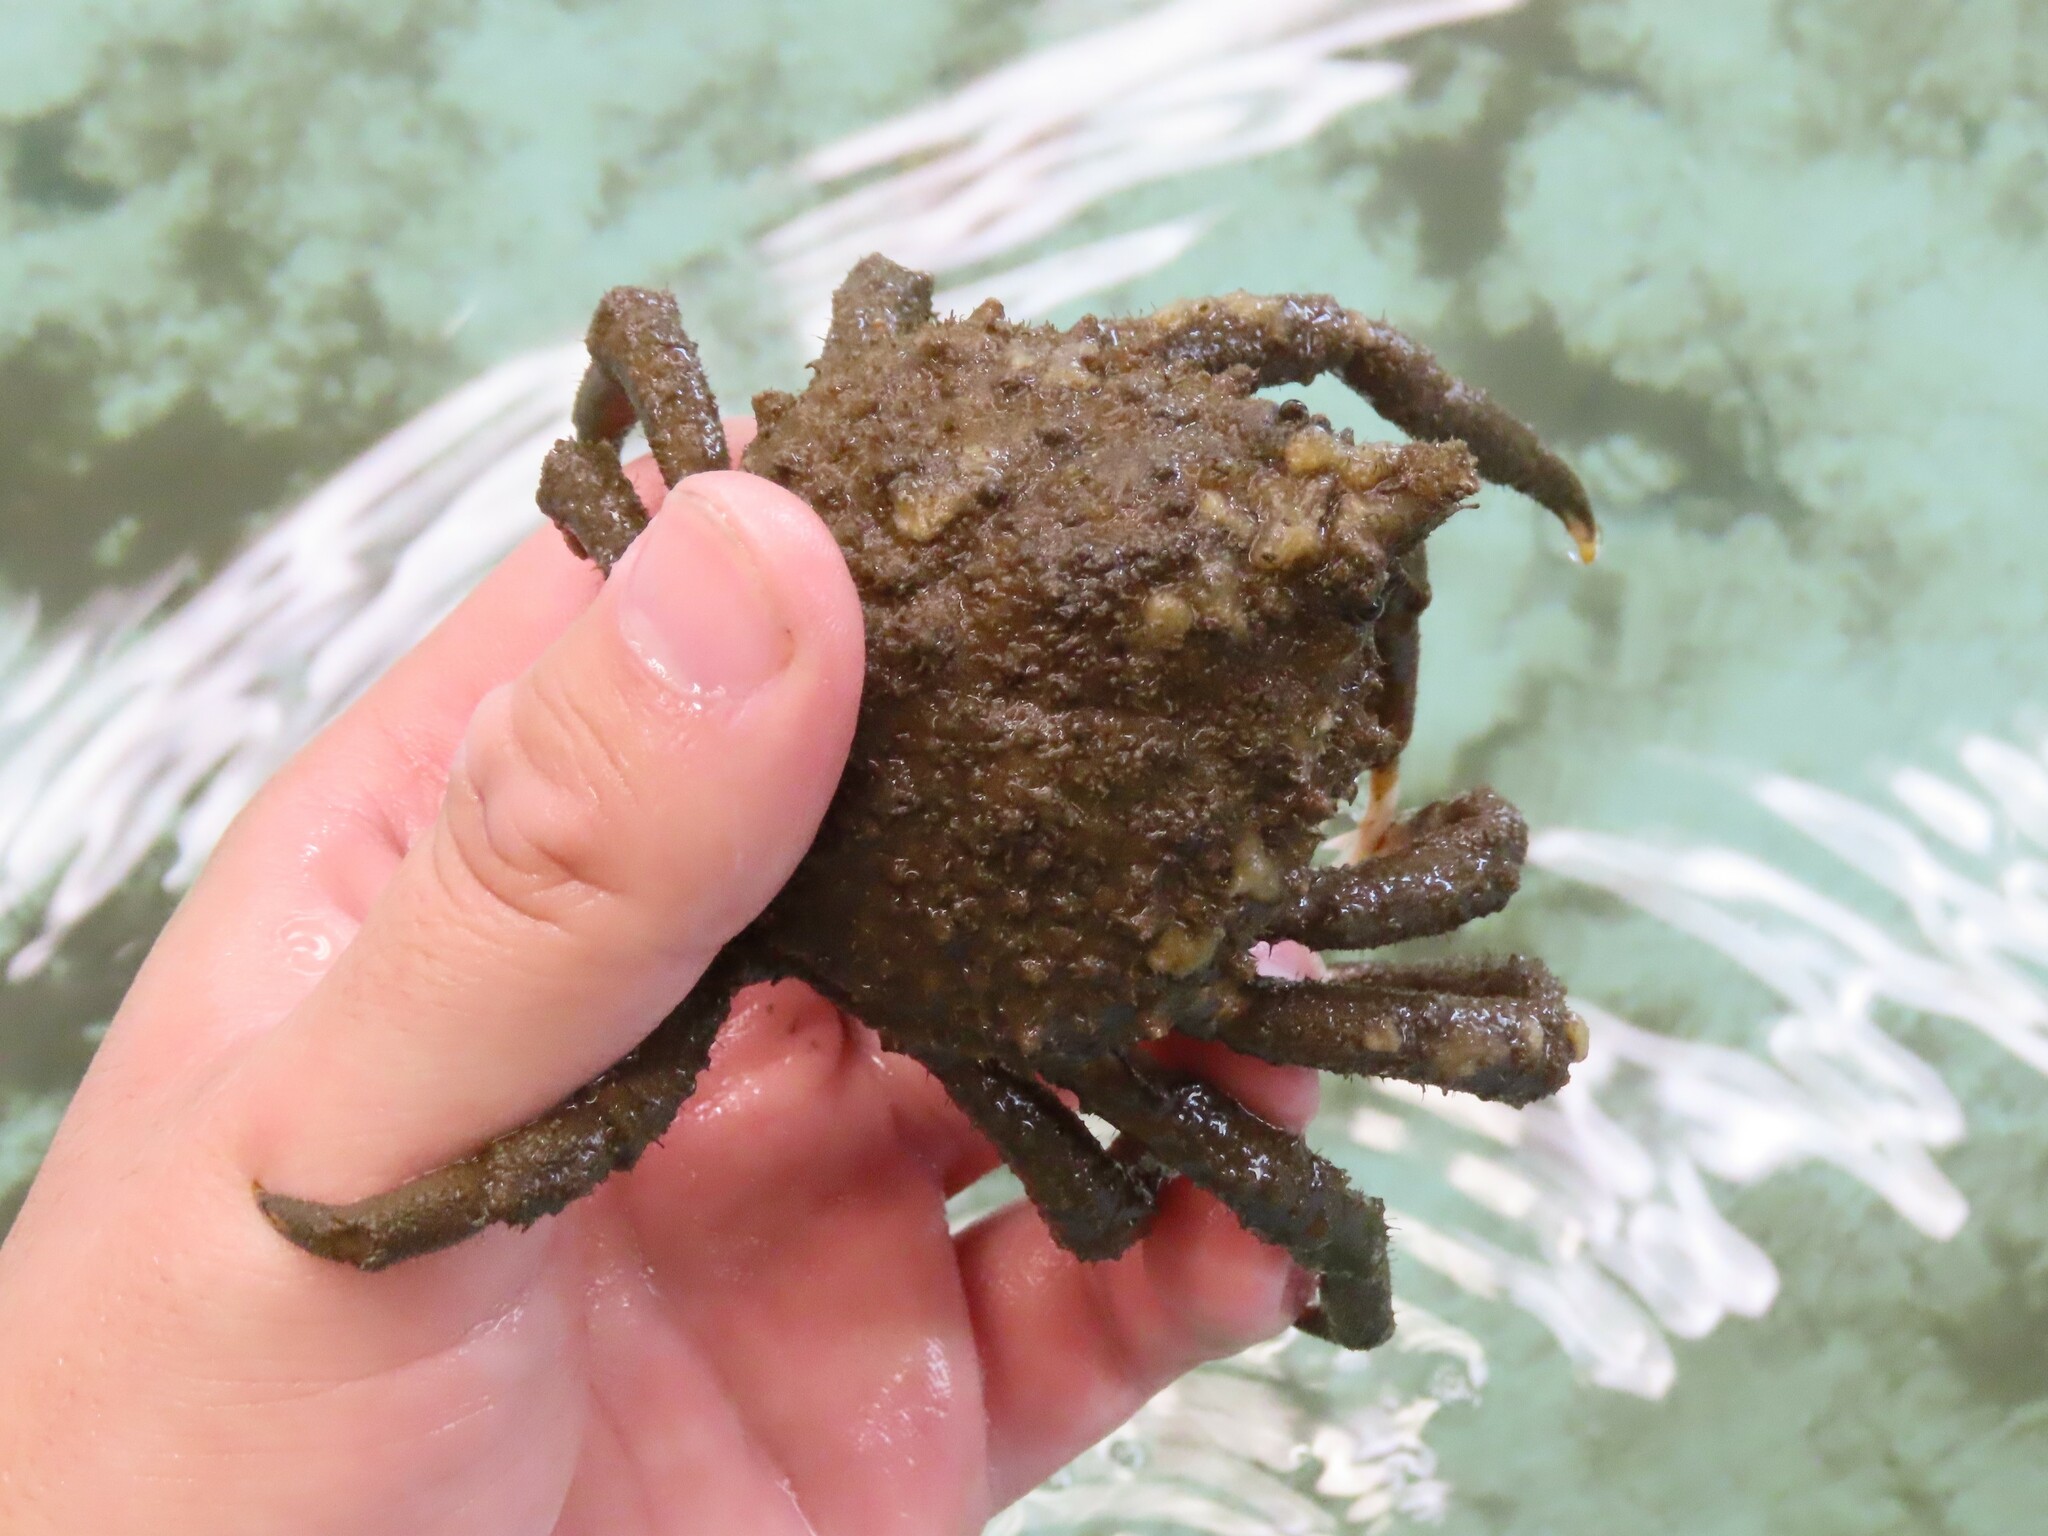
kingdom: Animalia
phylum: Arthropoda
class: Malacostraca
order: Decapoda
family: Epialtidae
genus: Libinia
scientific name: Libinia emarginata
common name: Common spider crab
